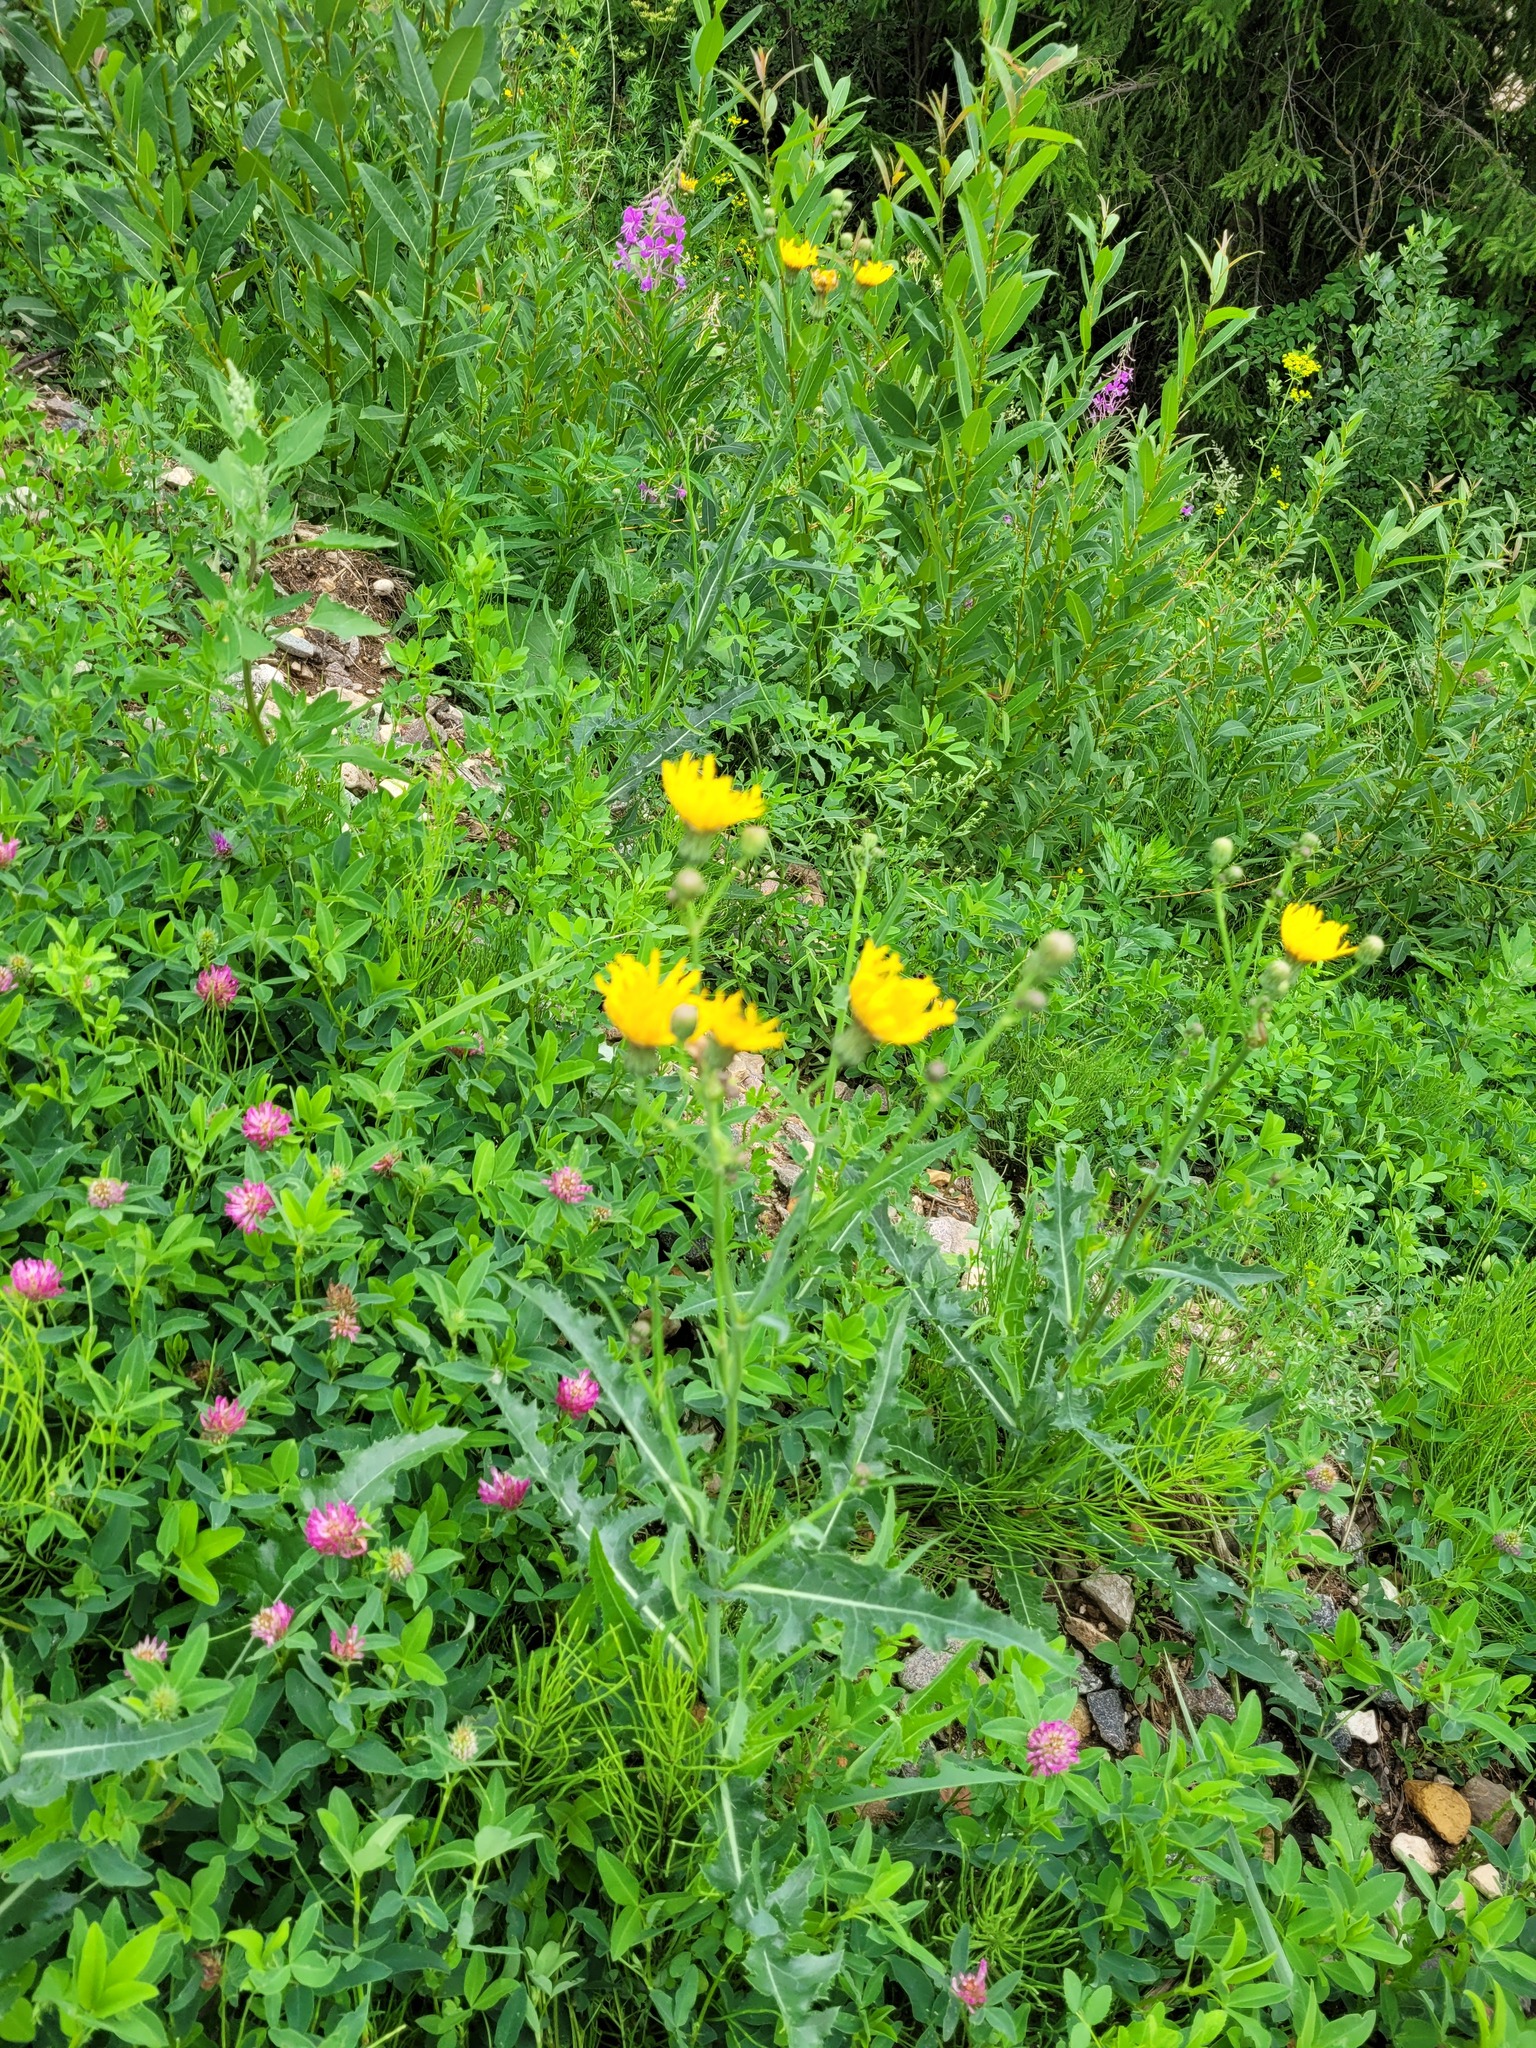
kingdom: Plantae
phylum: Tracheophyta
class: Magnoliopsida
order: Asterales
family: Asteraceae
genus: Sonchus
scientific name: Sonchus arvensis
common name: Perennial sow-thistle
